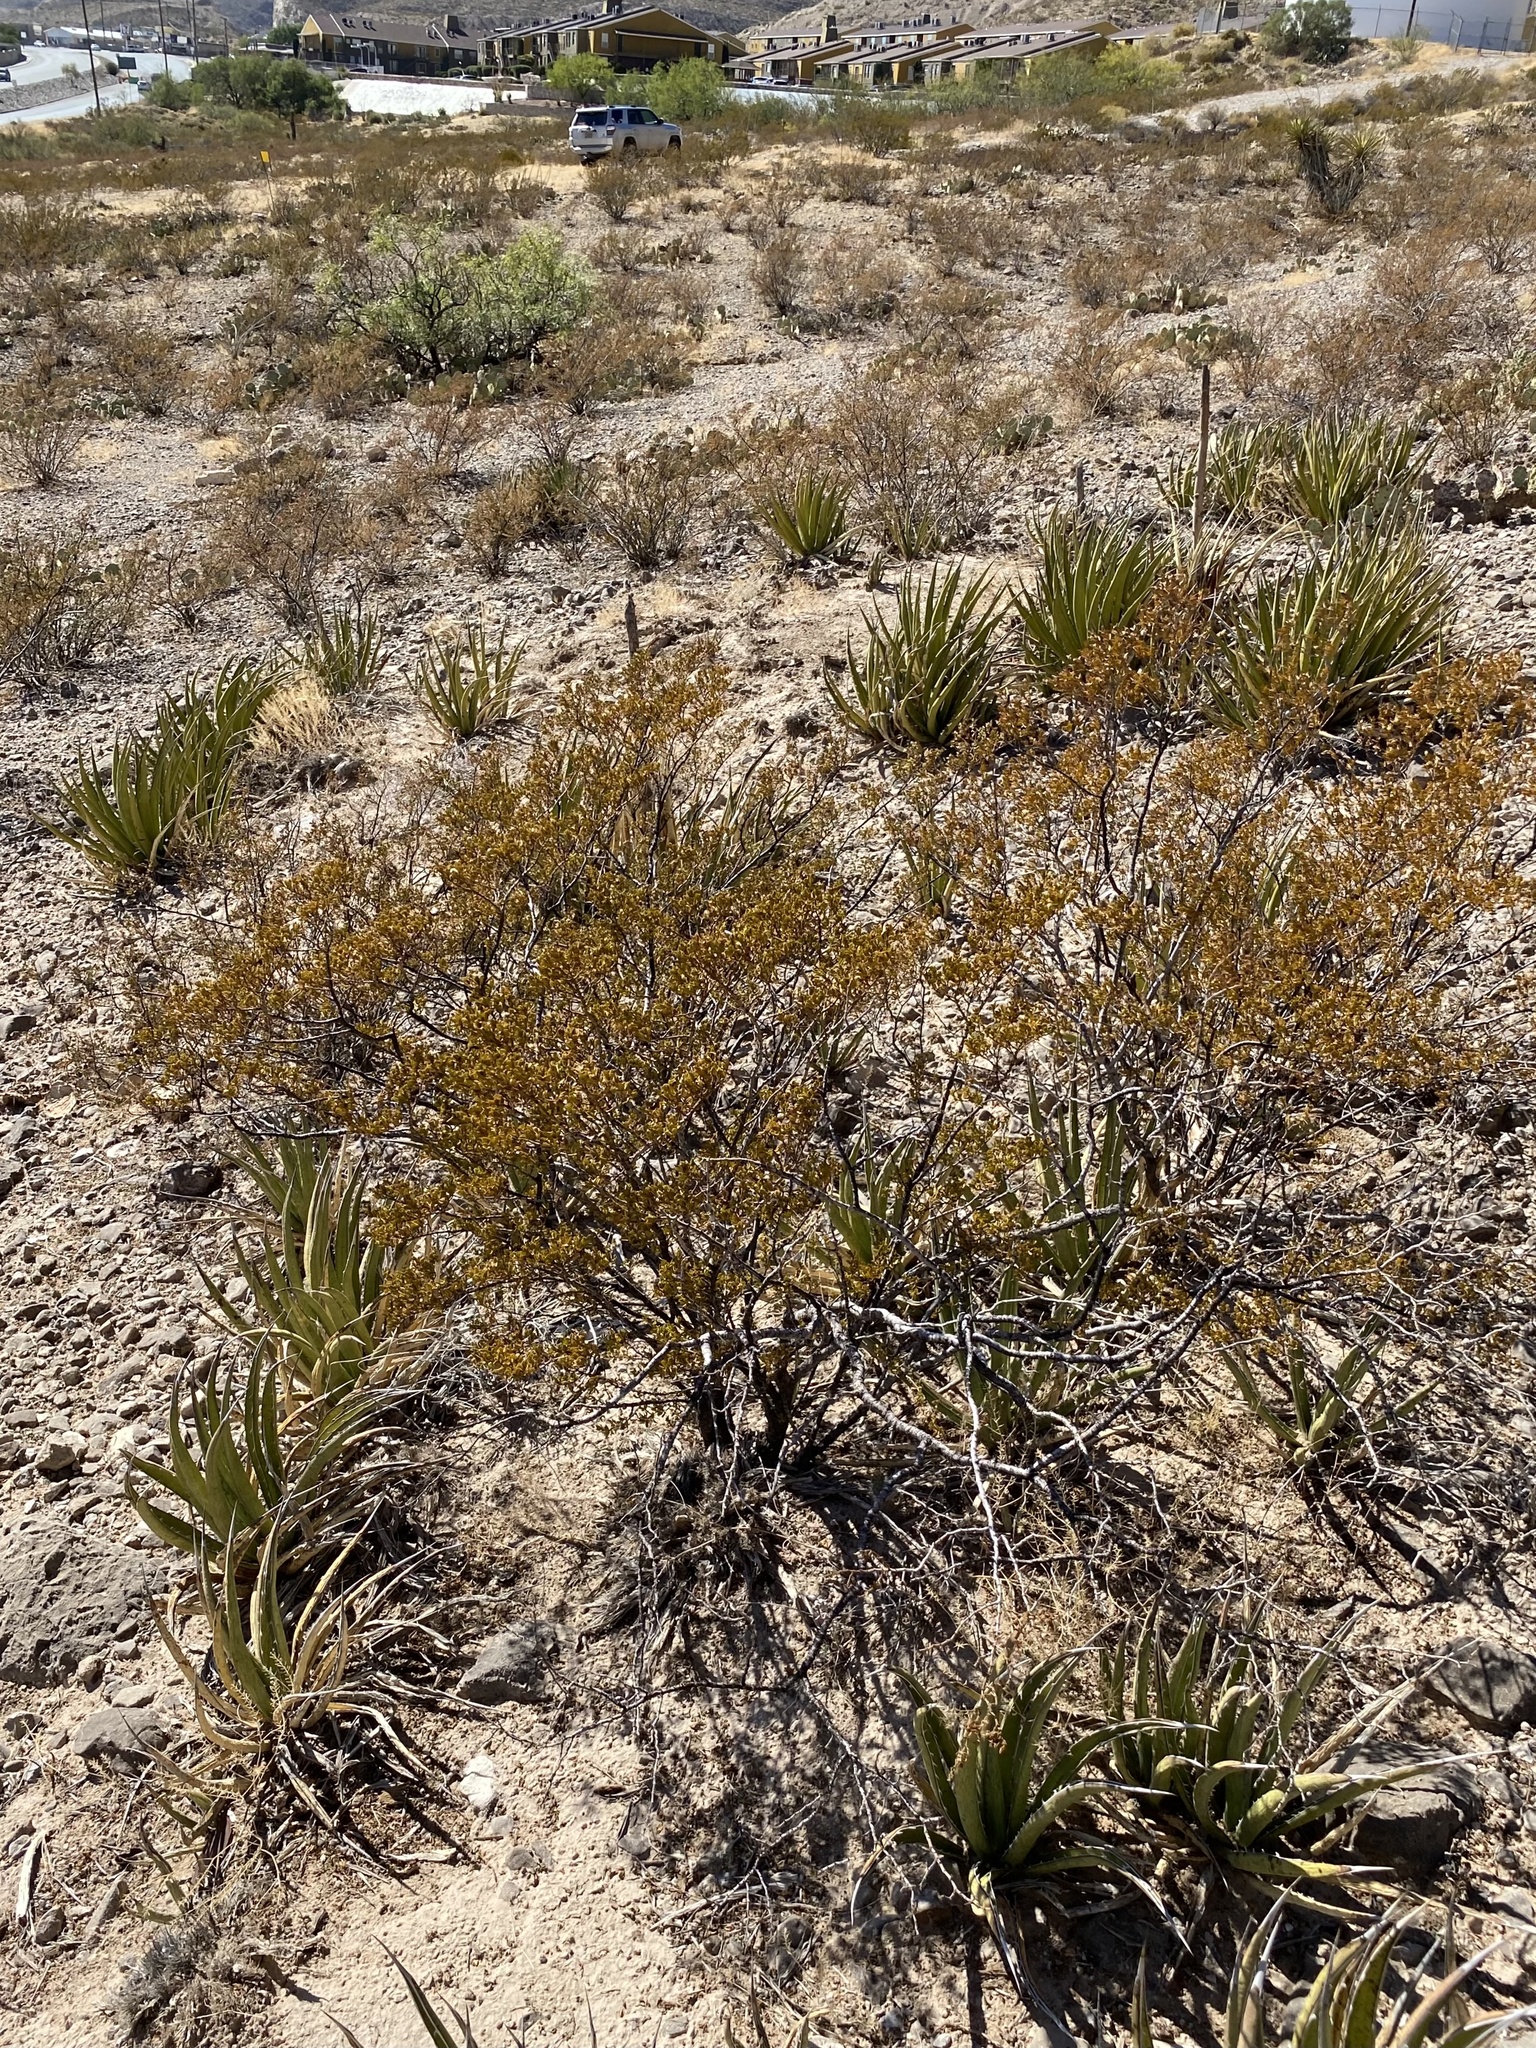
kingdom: Plantae
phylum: Tracheophyta
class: Magnoliopsida
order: Zygophyllales
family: Zygophyllaceae
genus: Larrea
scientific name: Larrea tridentata
